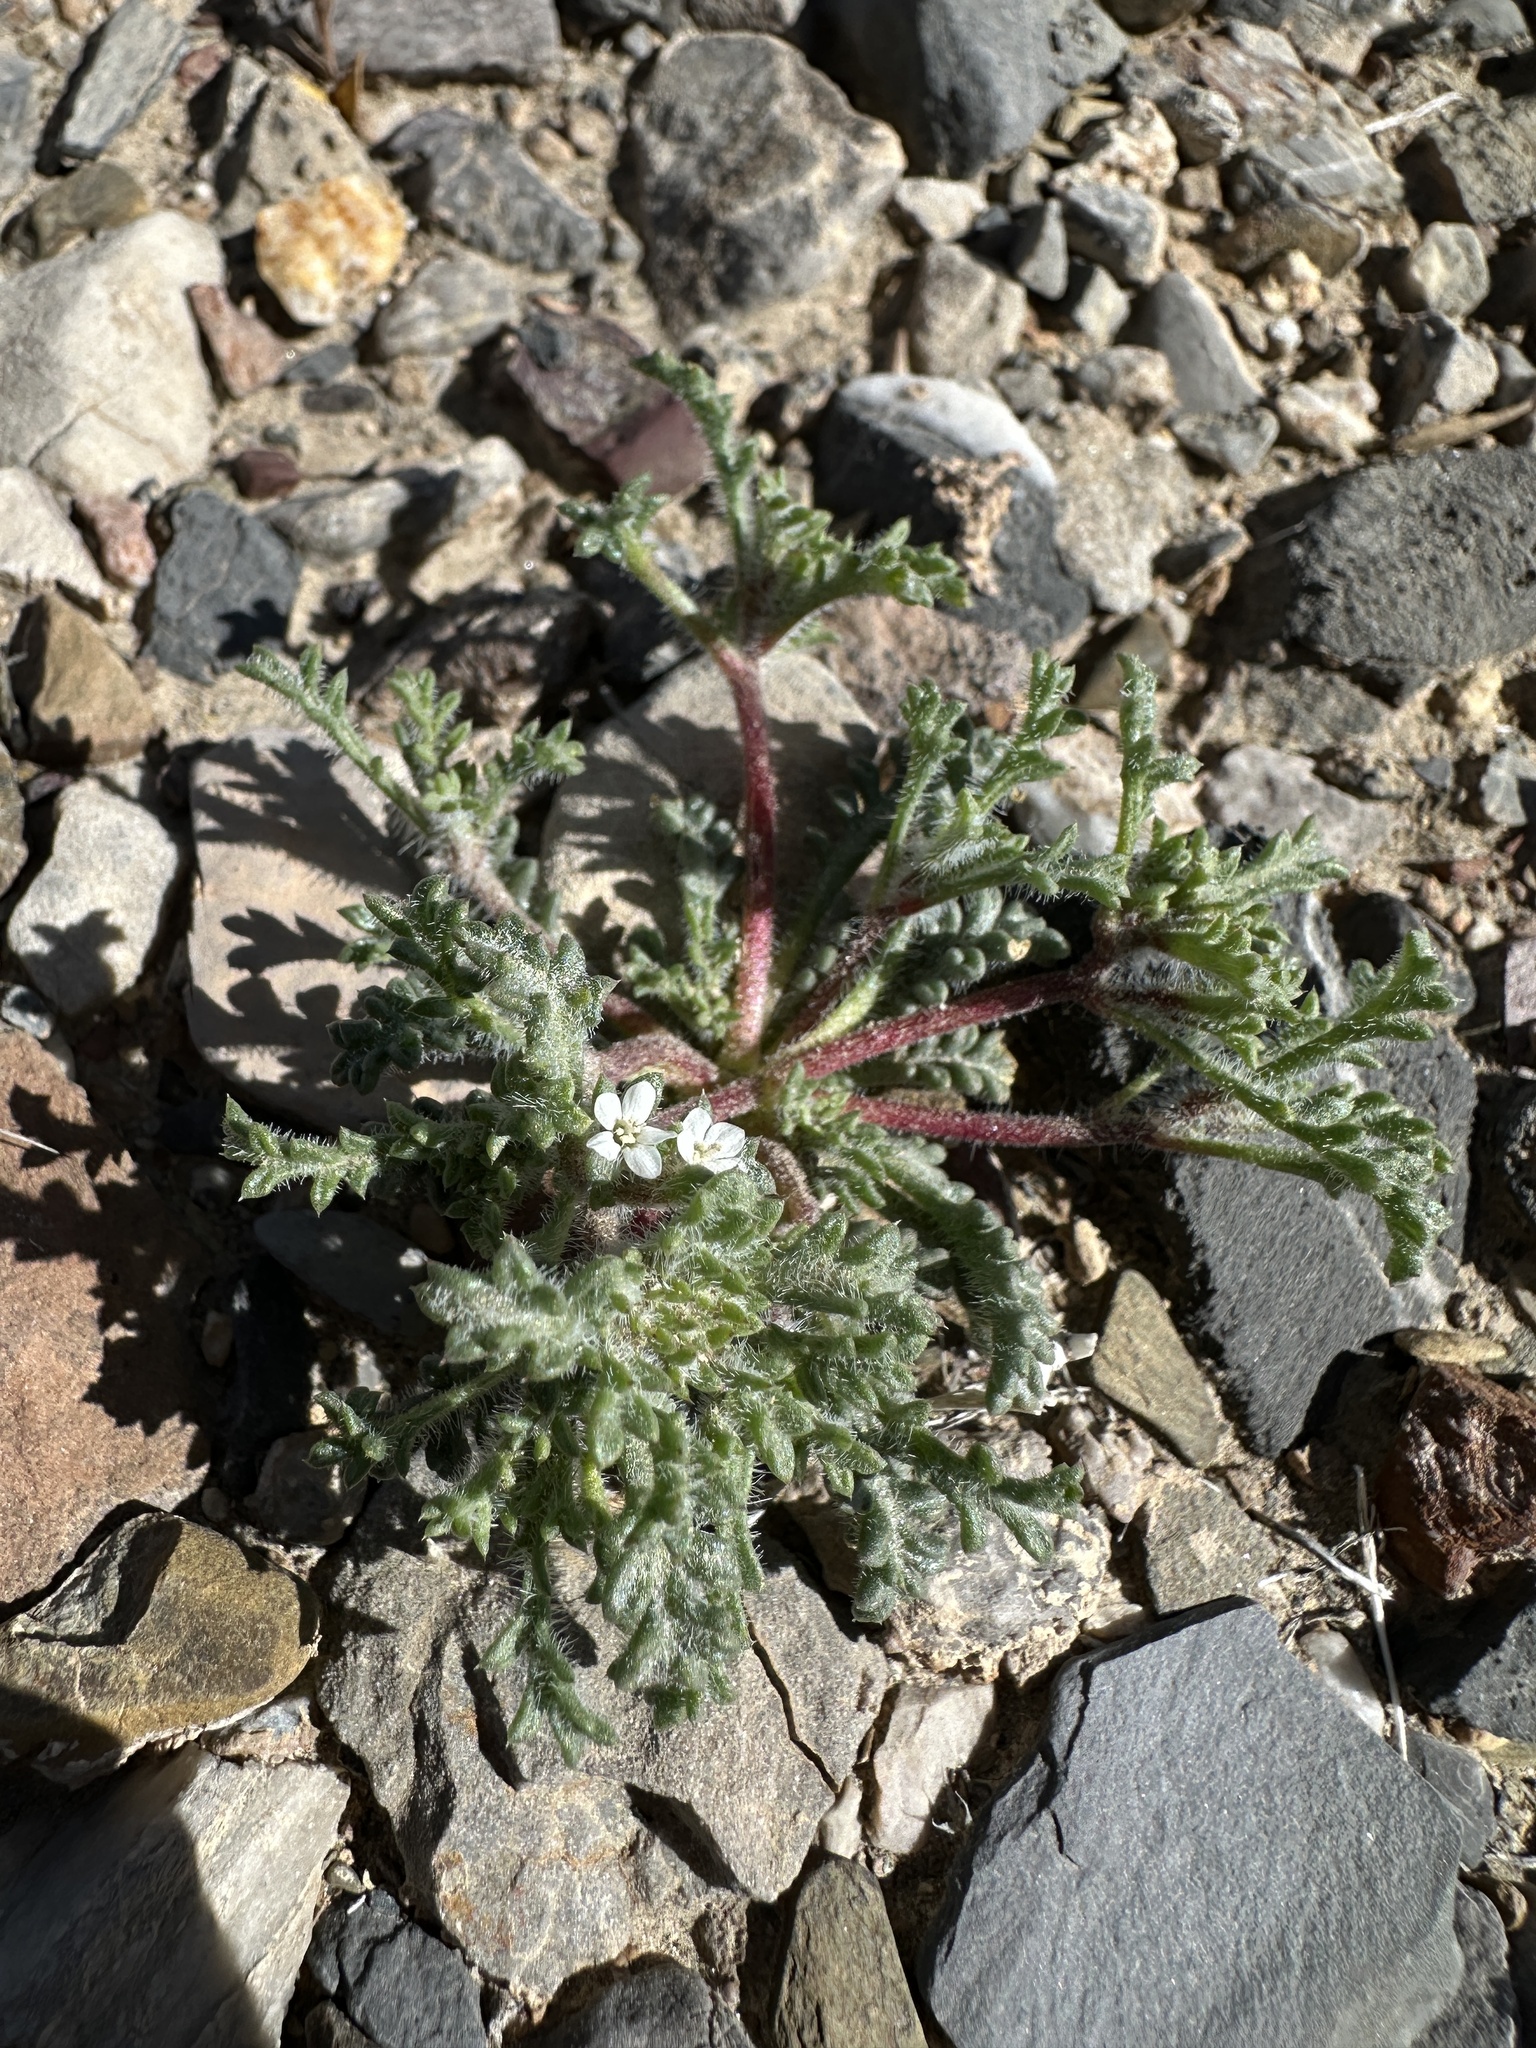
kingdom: Plantae
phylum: Tracheophyta
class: Magnoliopsida
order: Ericales
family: Polemoniaceae
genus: Ipomopsis
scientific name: Ipomopsis polycladon
